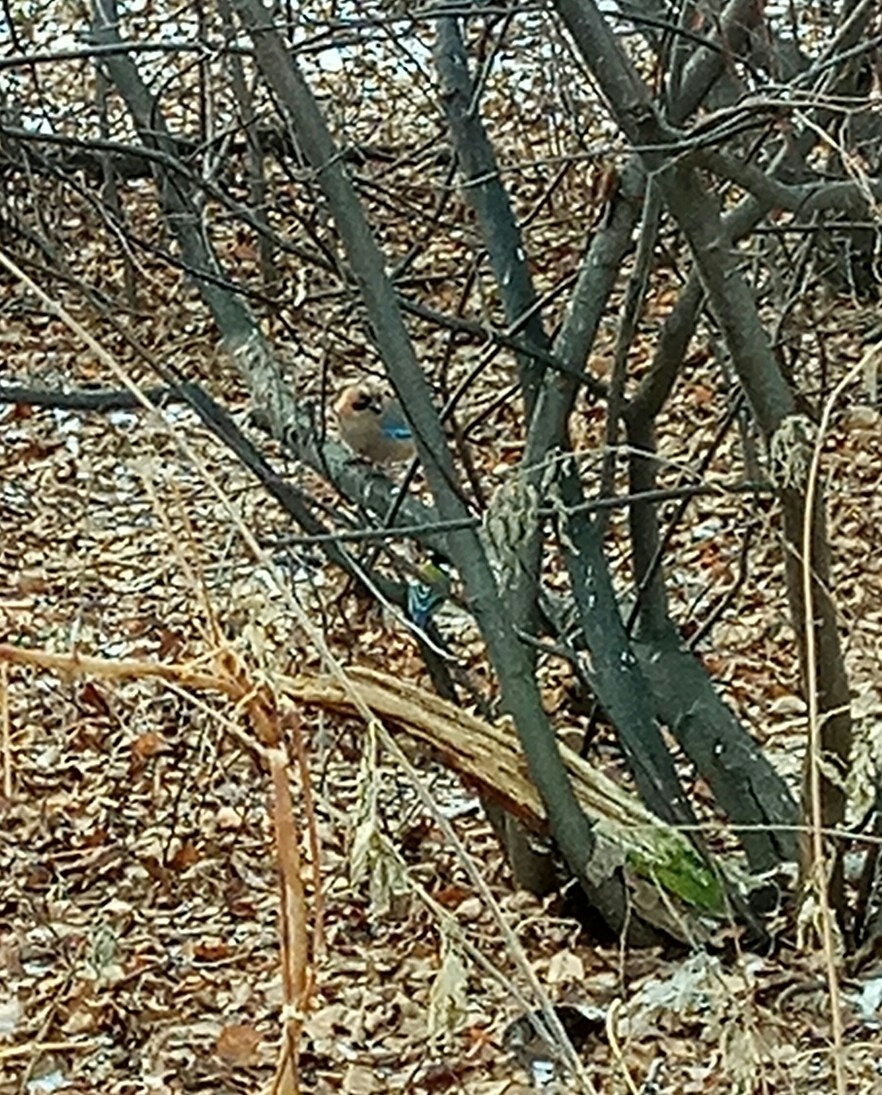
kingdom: Animalia
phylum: Chordata
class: Aves
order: Passeriformes
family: Corvidae
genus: Garrulus
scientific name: Garrulus glandarius
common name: Eurasian jay
